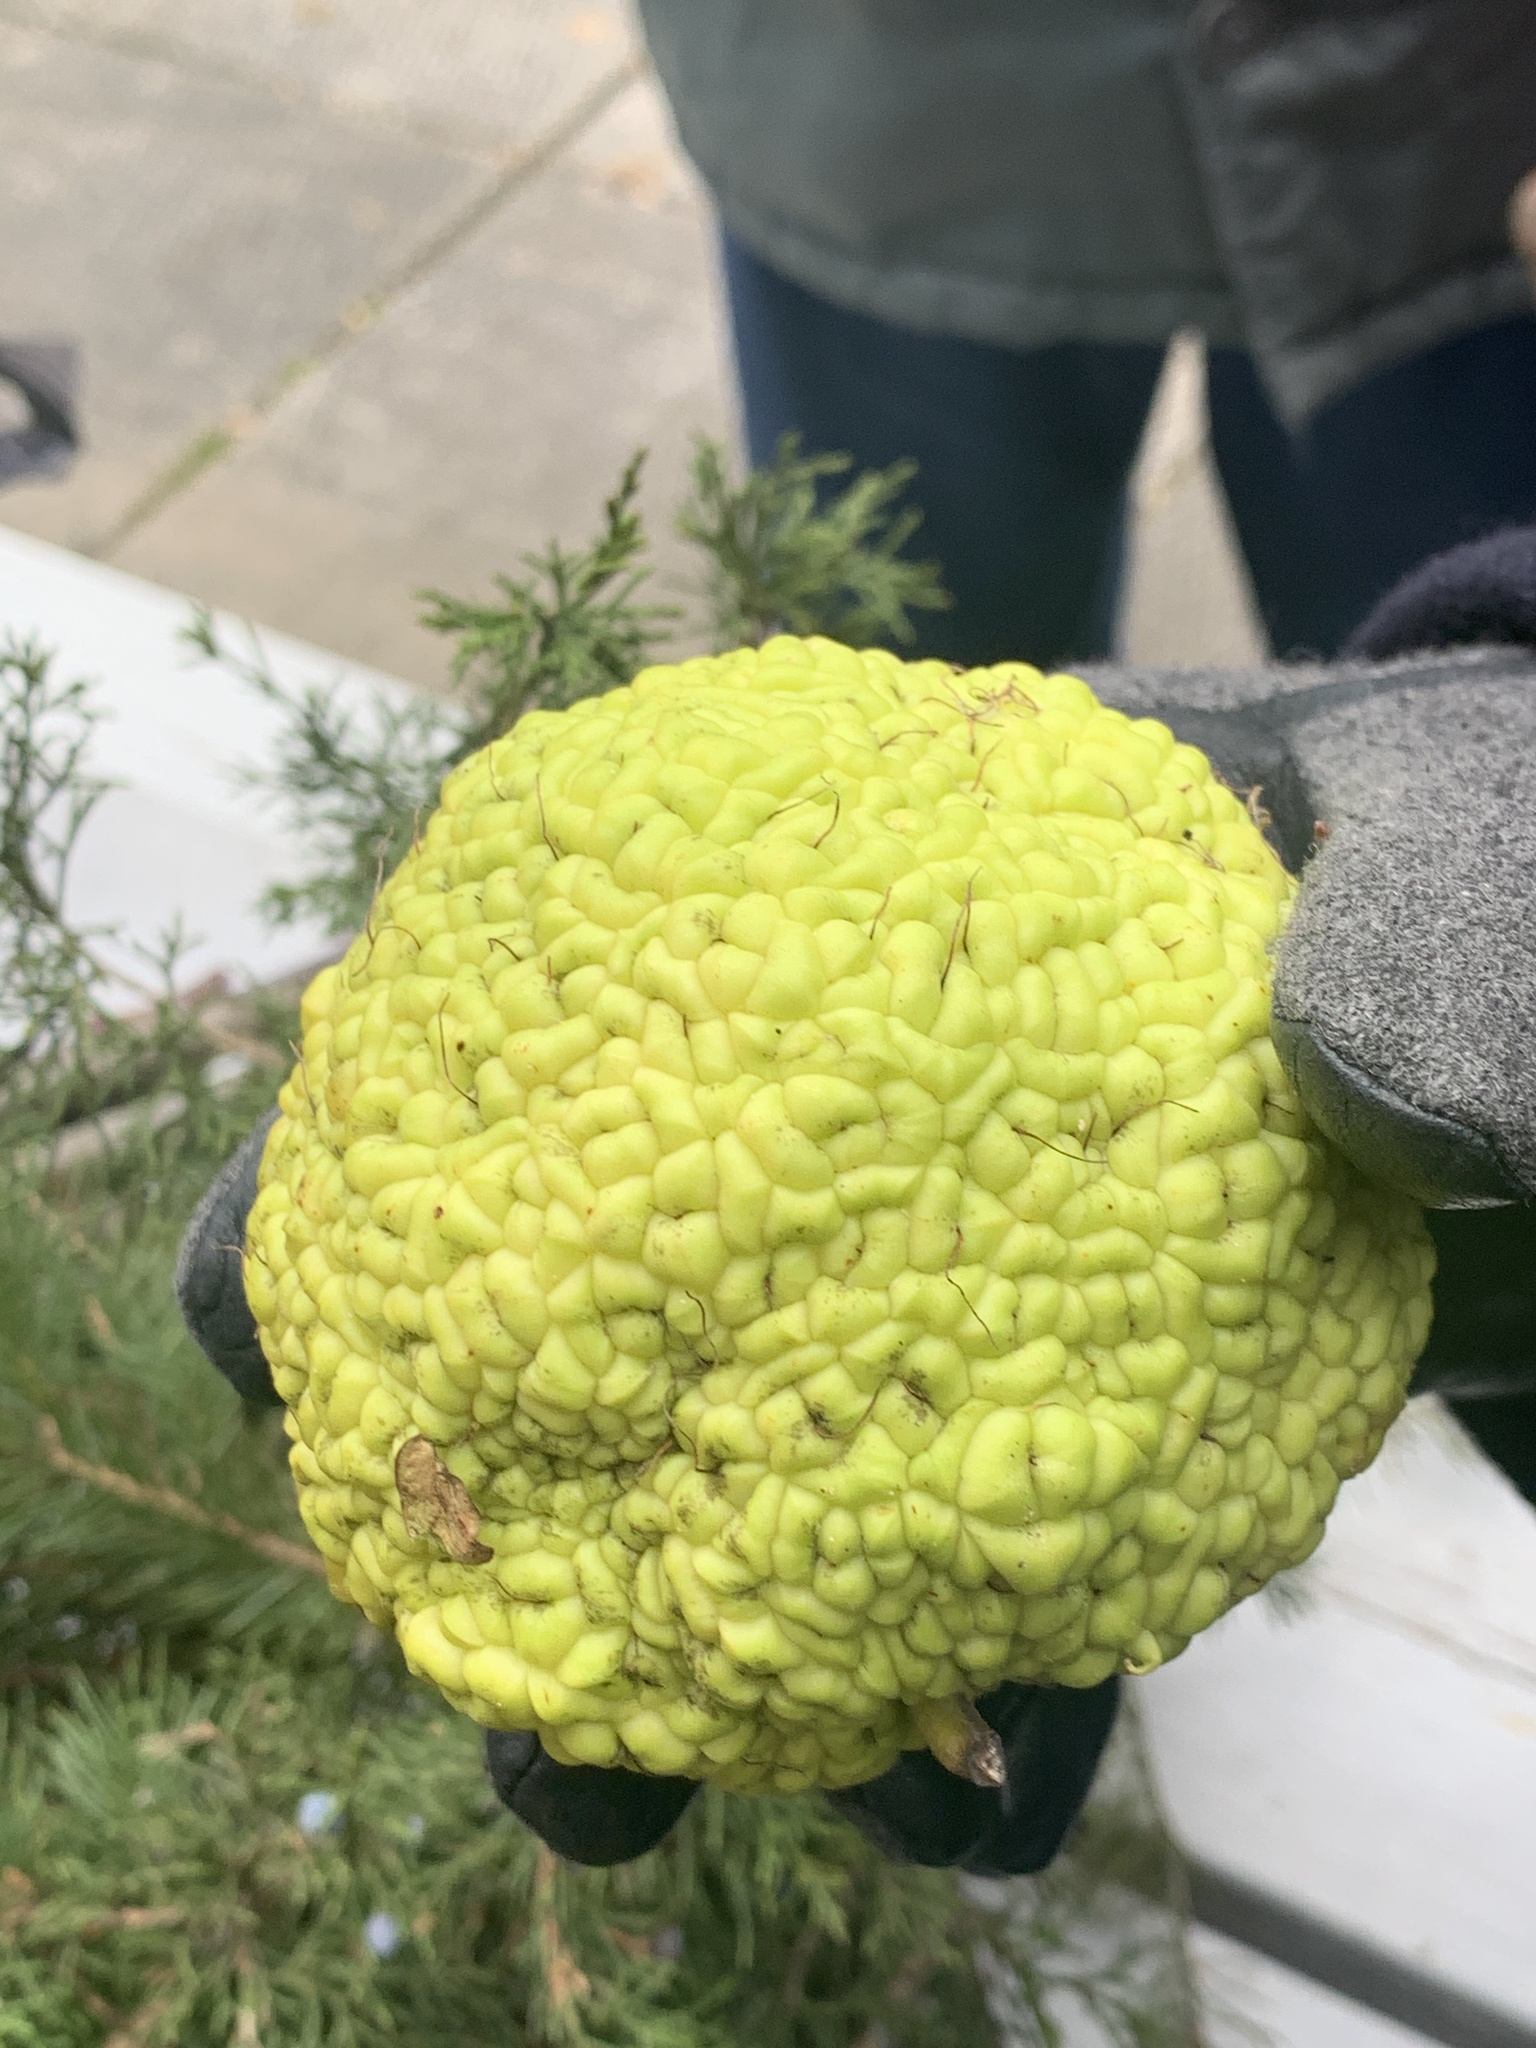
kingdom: Plantae
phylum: Tracheophyta
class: Magnoliopsida
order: Rosales
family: Moraceae
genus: Maclura
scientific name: Maclura pomifera
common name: Osage-orange
